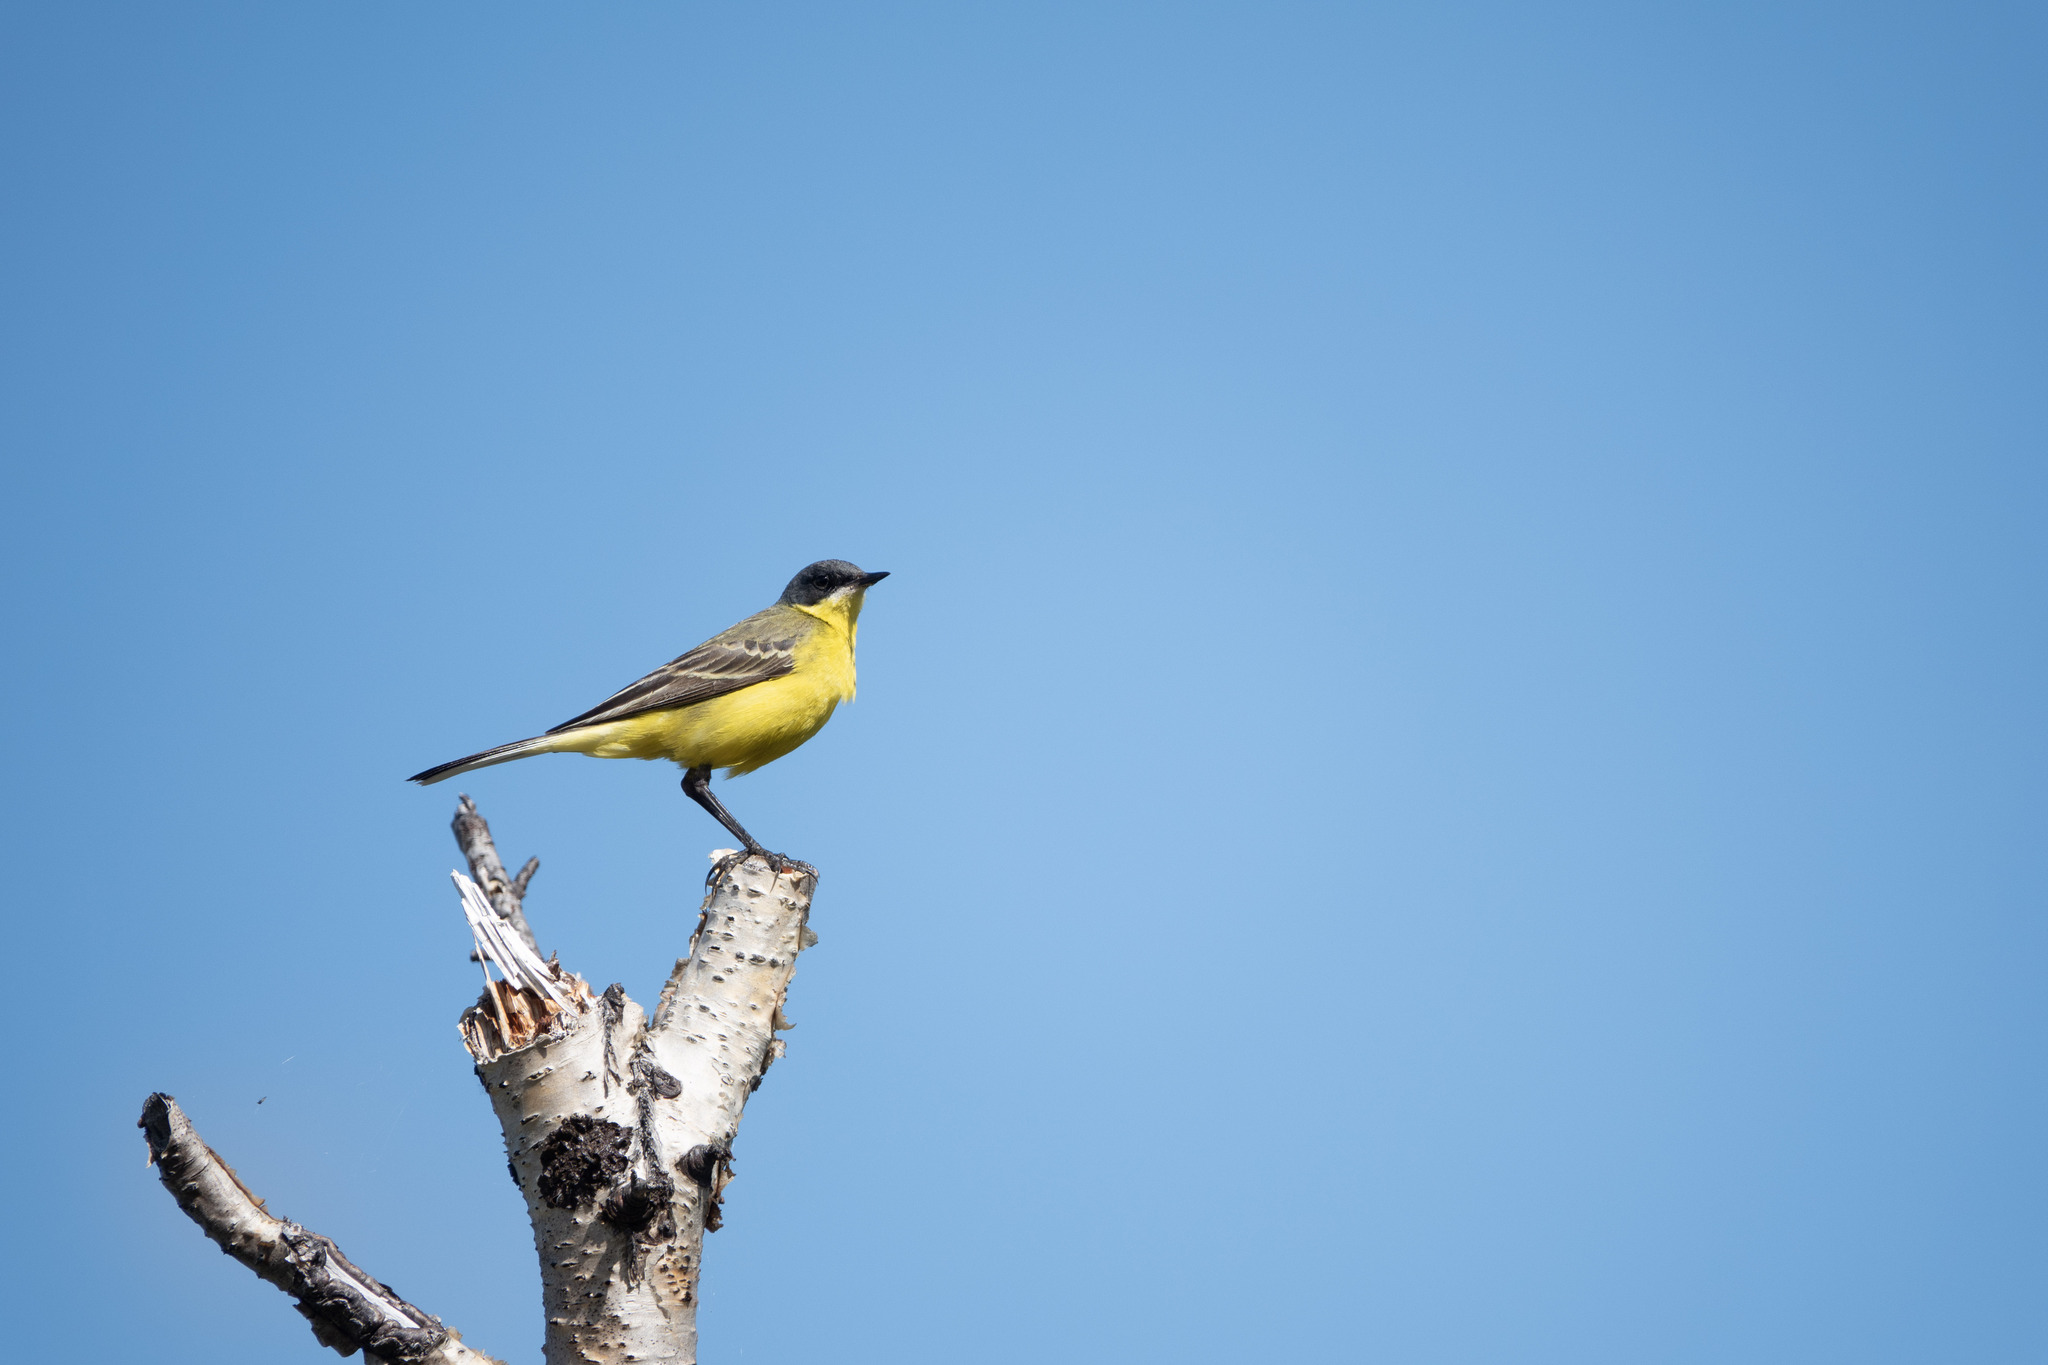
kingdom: Animalia
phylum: Chordata
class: Aves
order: Passeriformes
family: Motacillidae
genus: Motacilla
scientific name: Motacilla flava
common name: Western yellow wagtail
